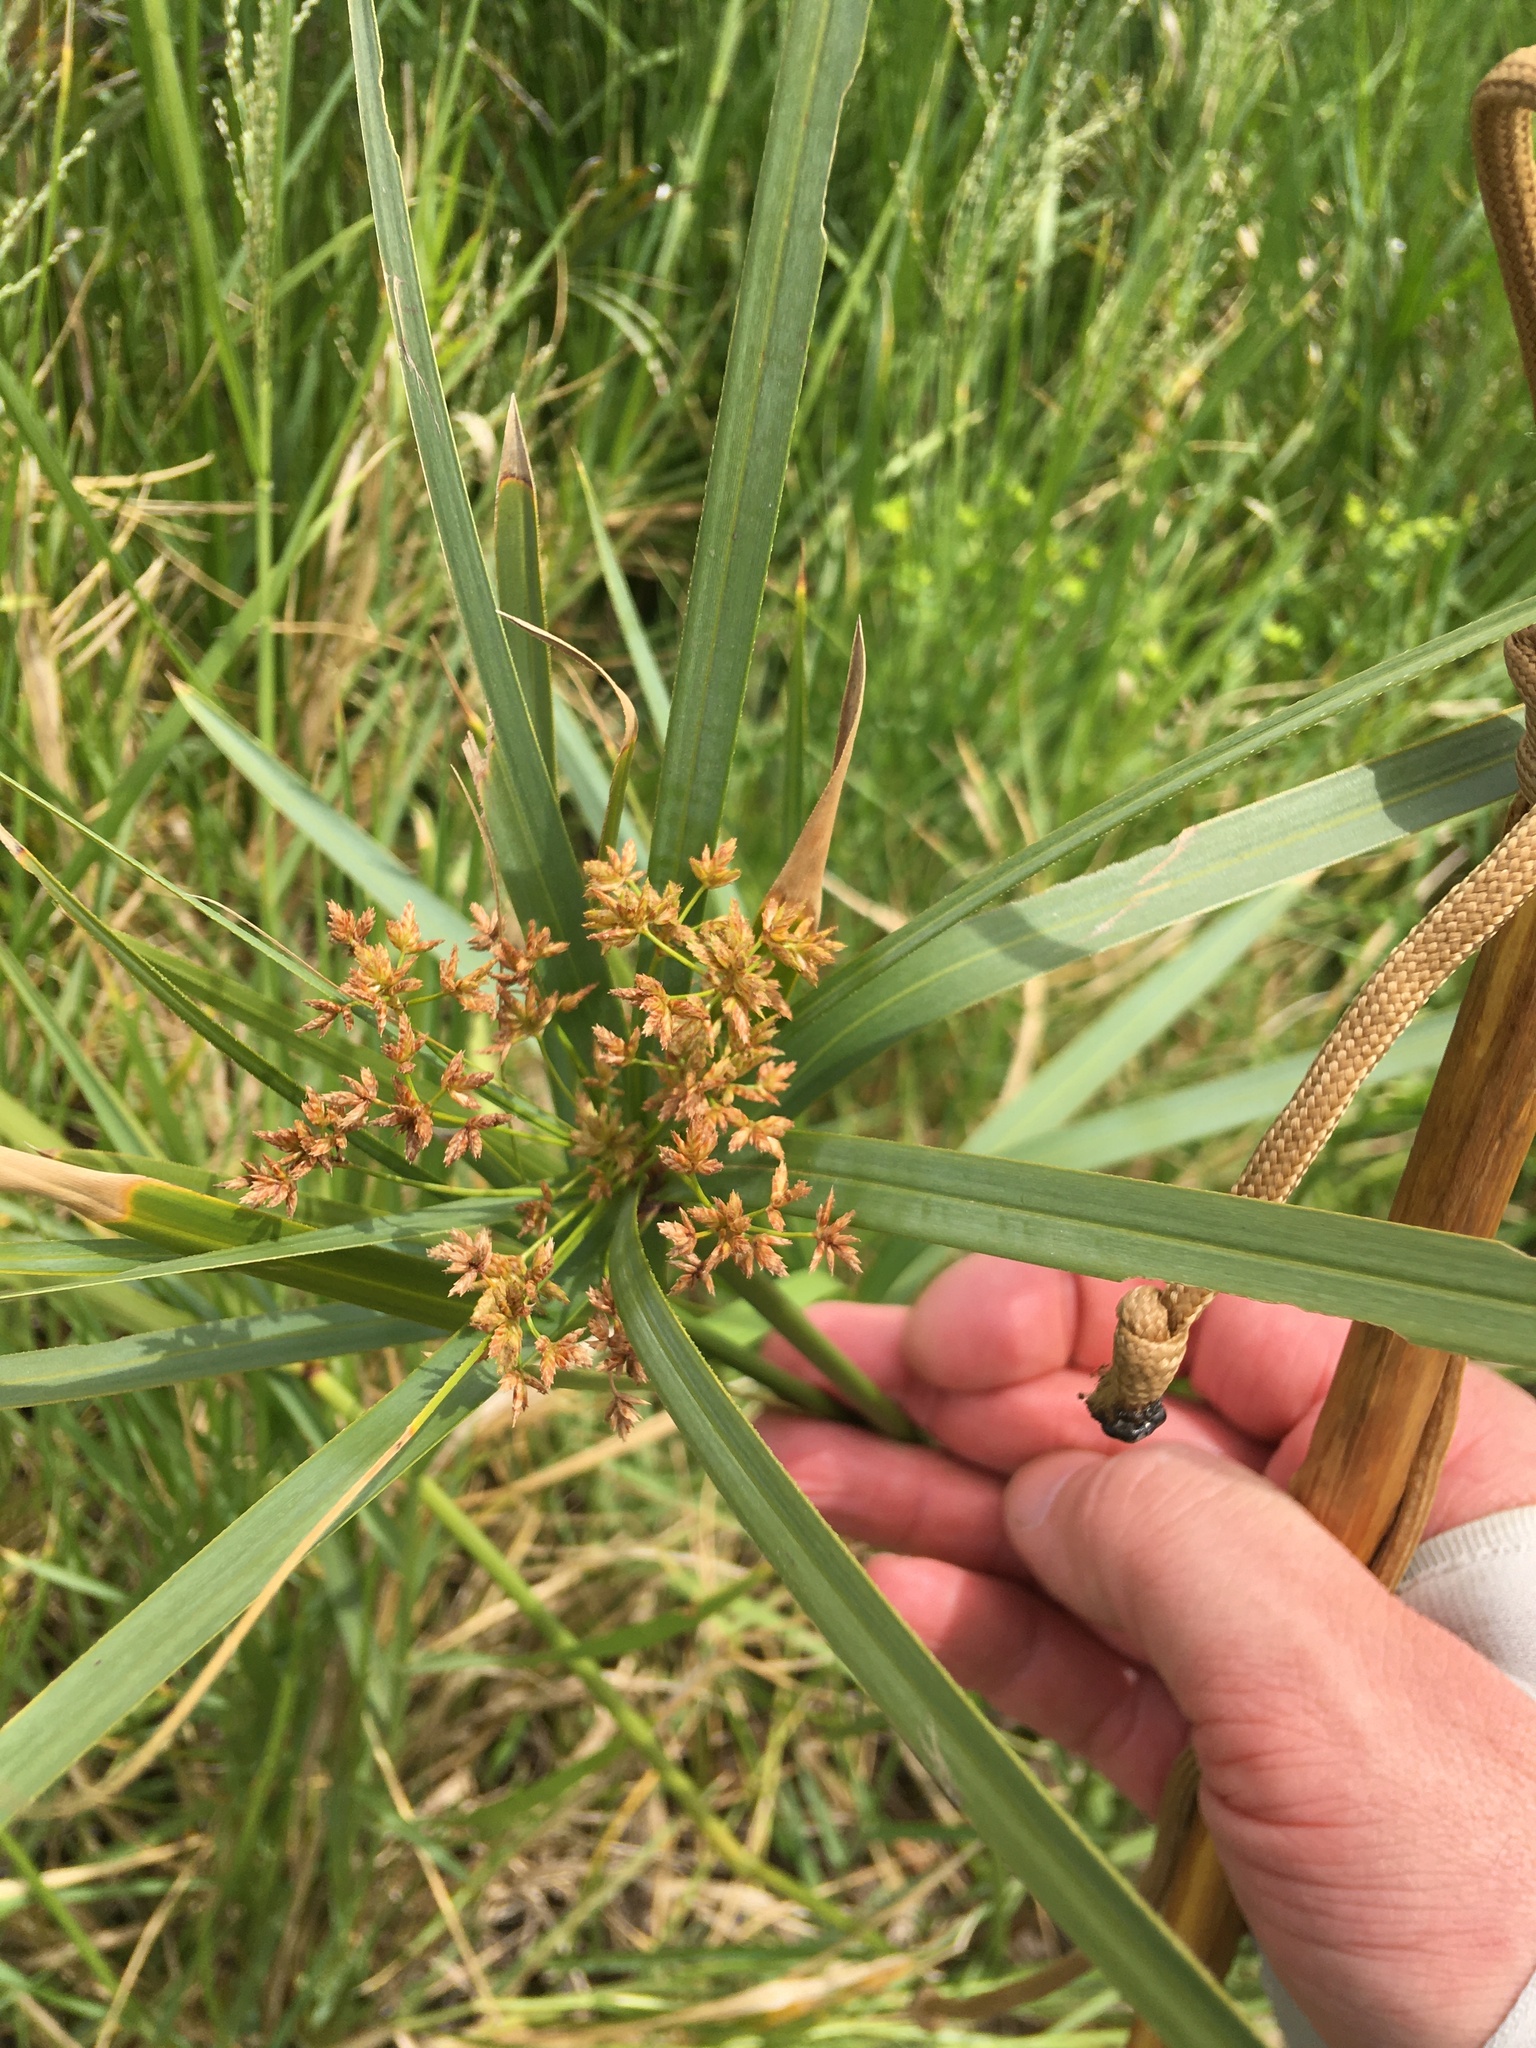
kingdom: Plantae
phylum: Tracheophyta
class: Liliopsida
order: Poales
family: Cyperaceae
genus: Cyperus
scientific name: Cyperus textilis
